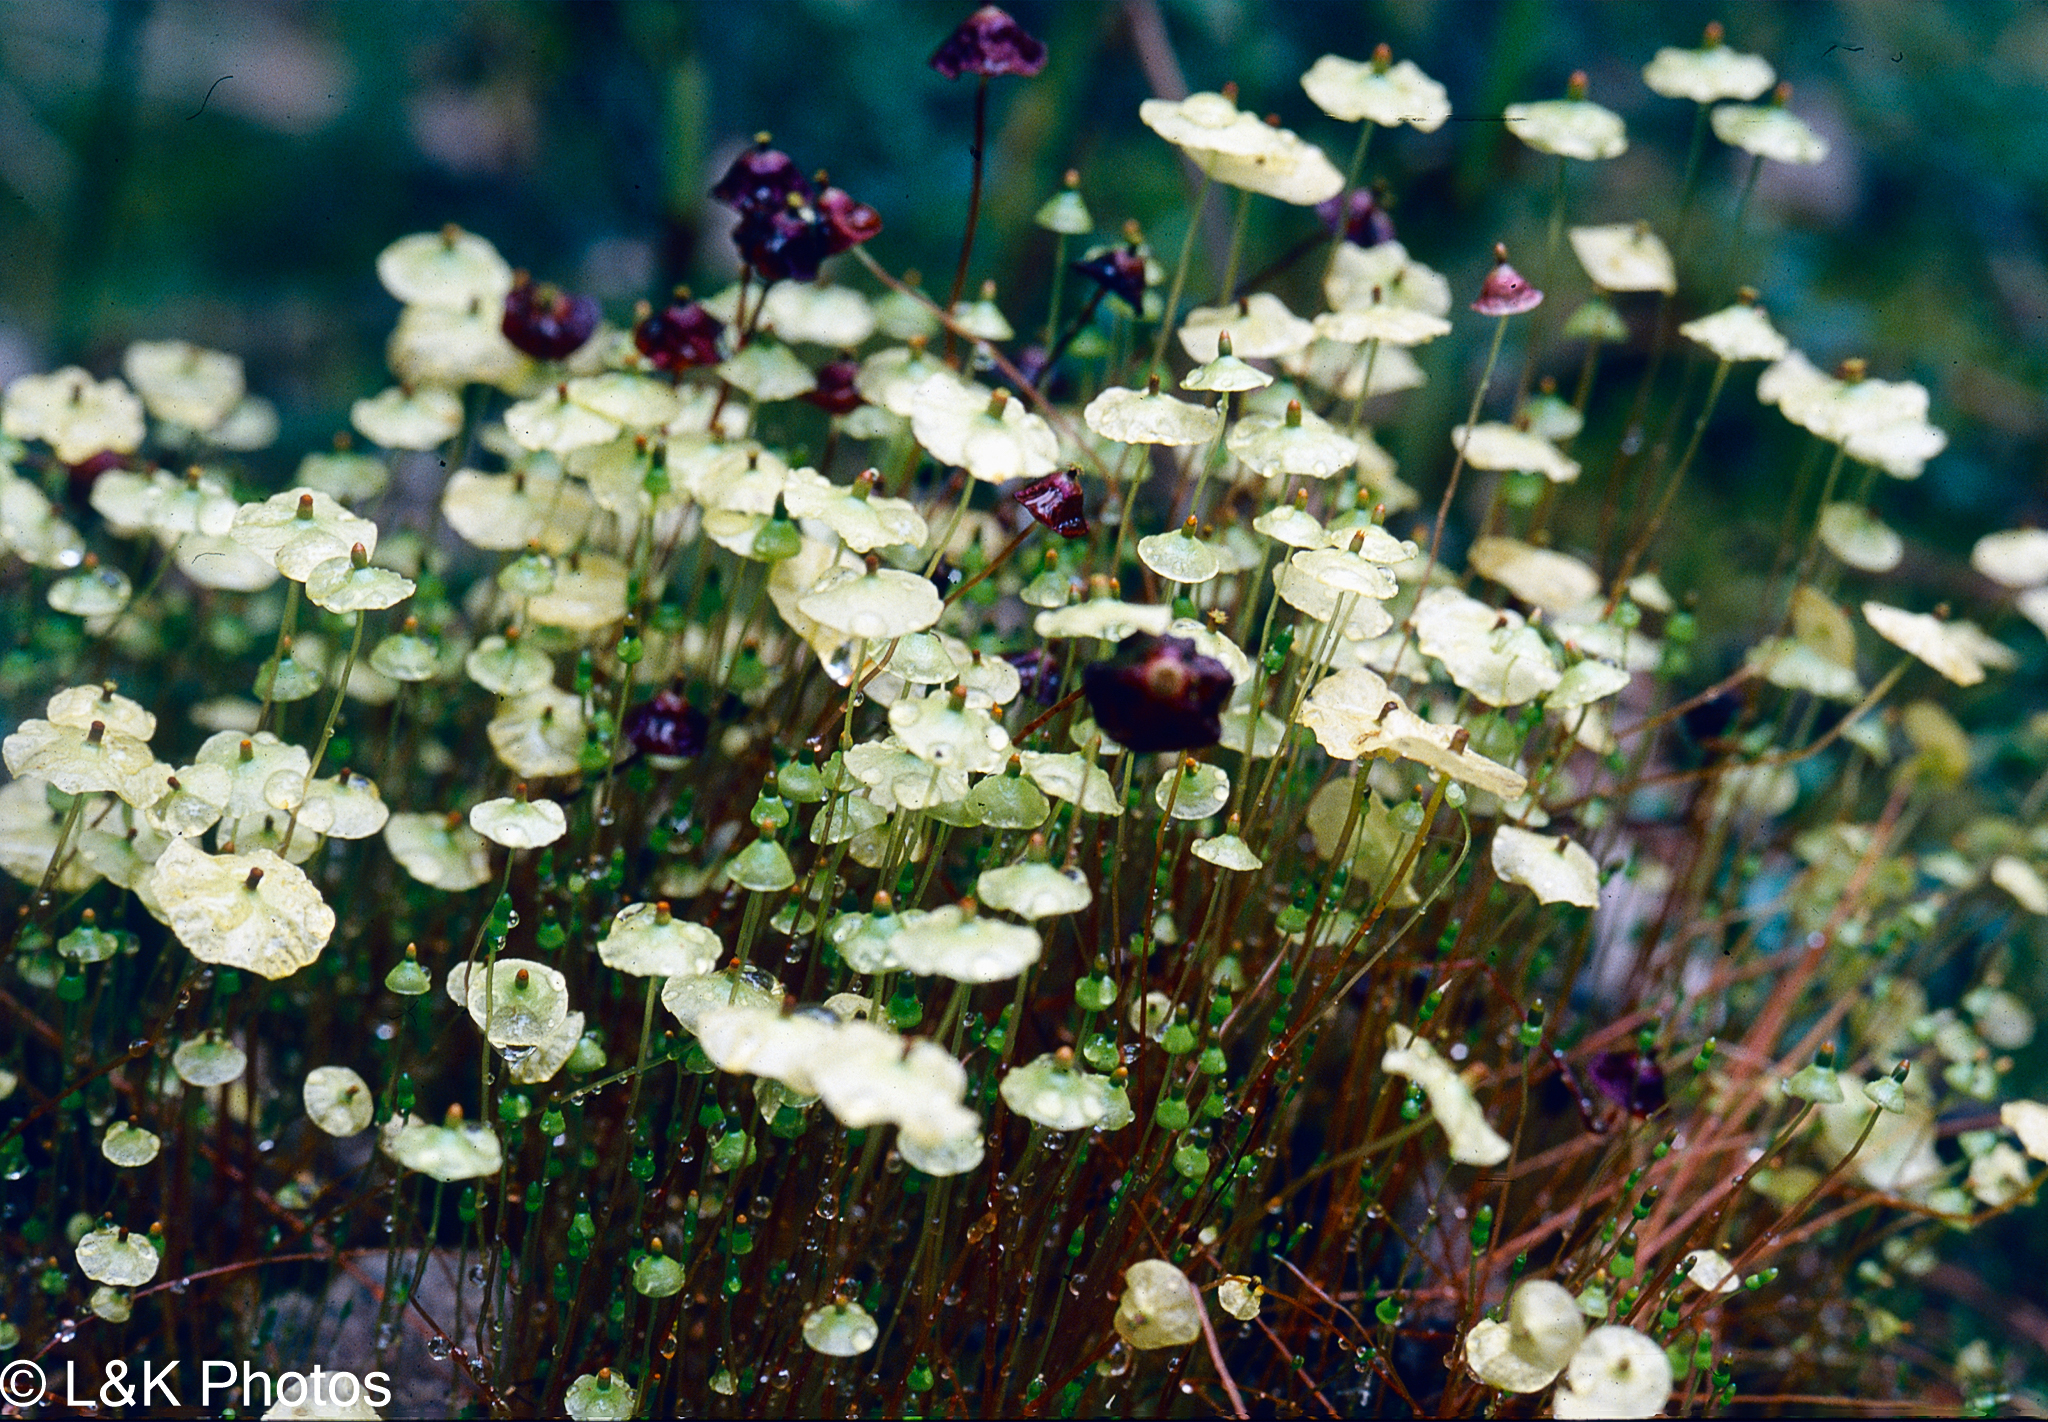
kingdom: Plantae
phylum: Bryophyta
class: Bryopsida
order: Splachnales
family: Splachnaceae
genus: Splachnum
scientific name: Splachnum luteum
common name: Yellow dung moss
